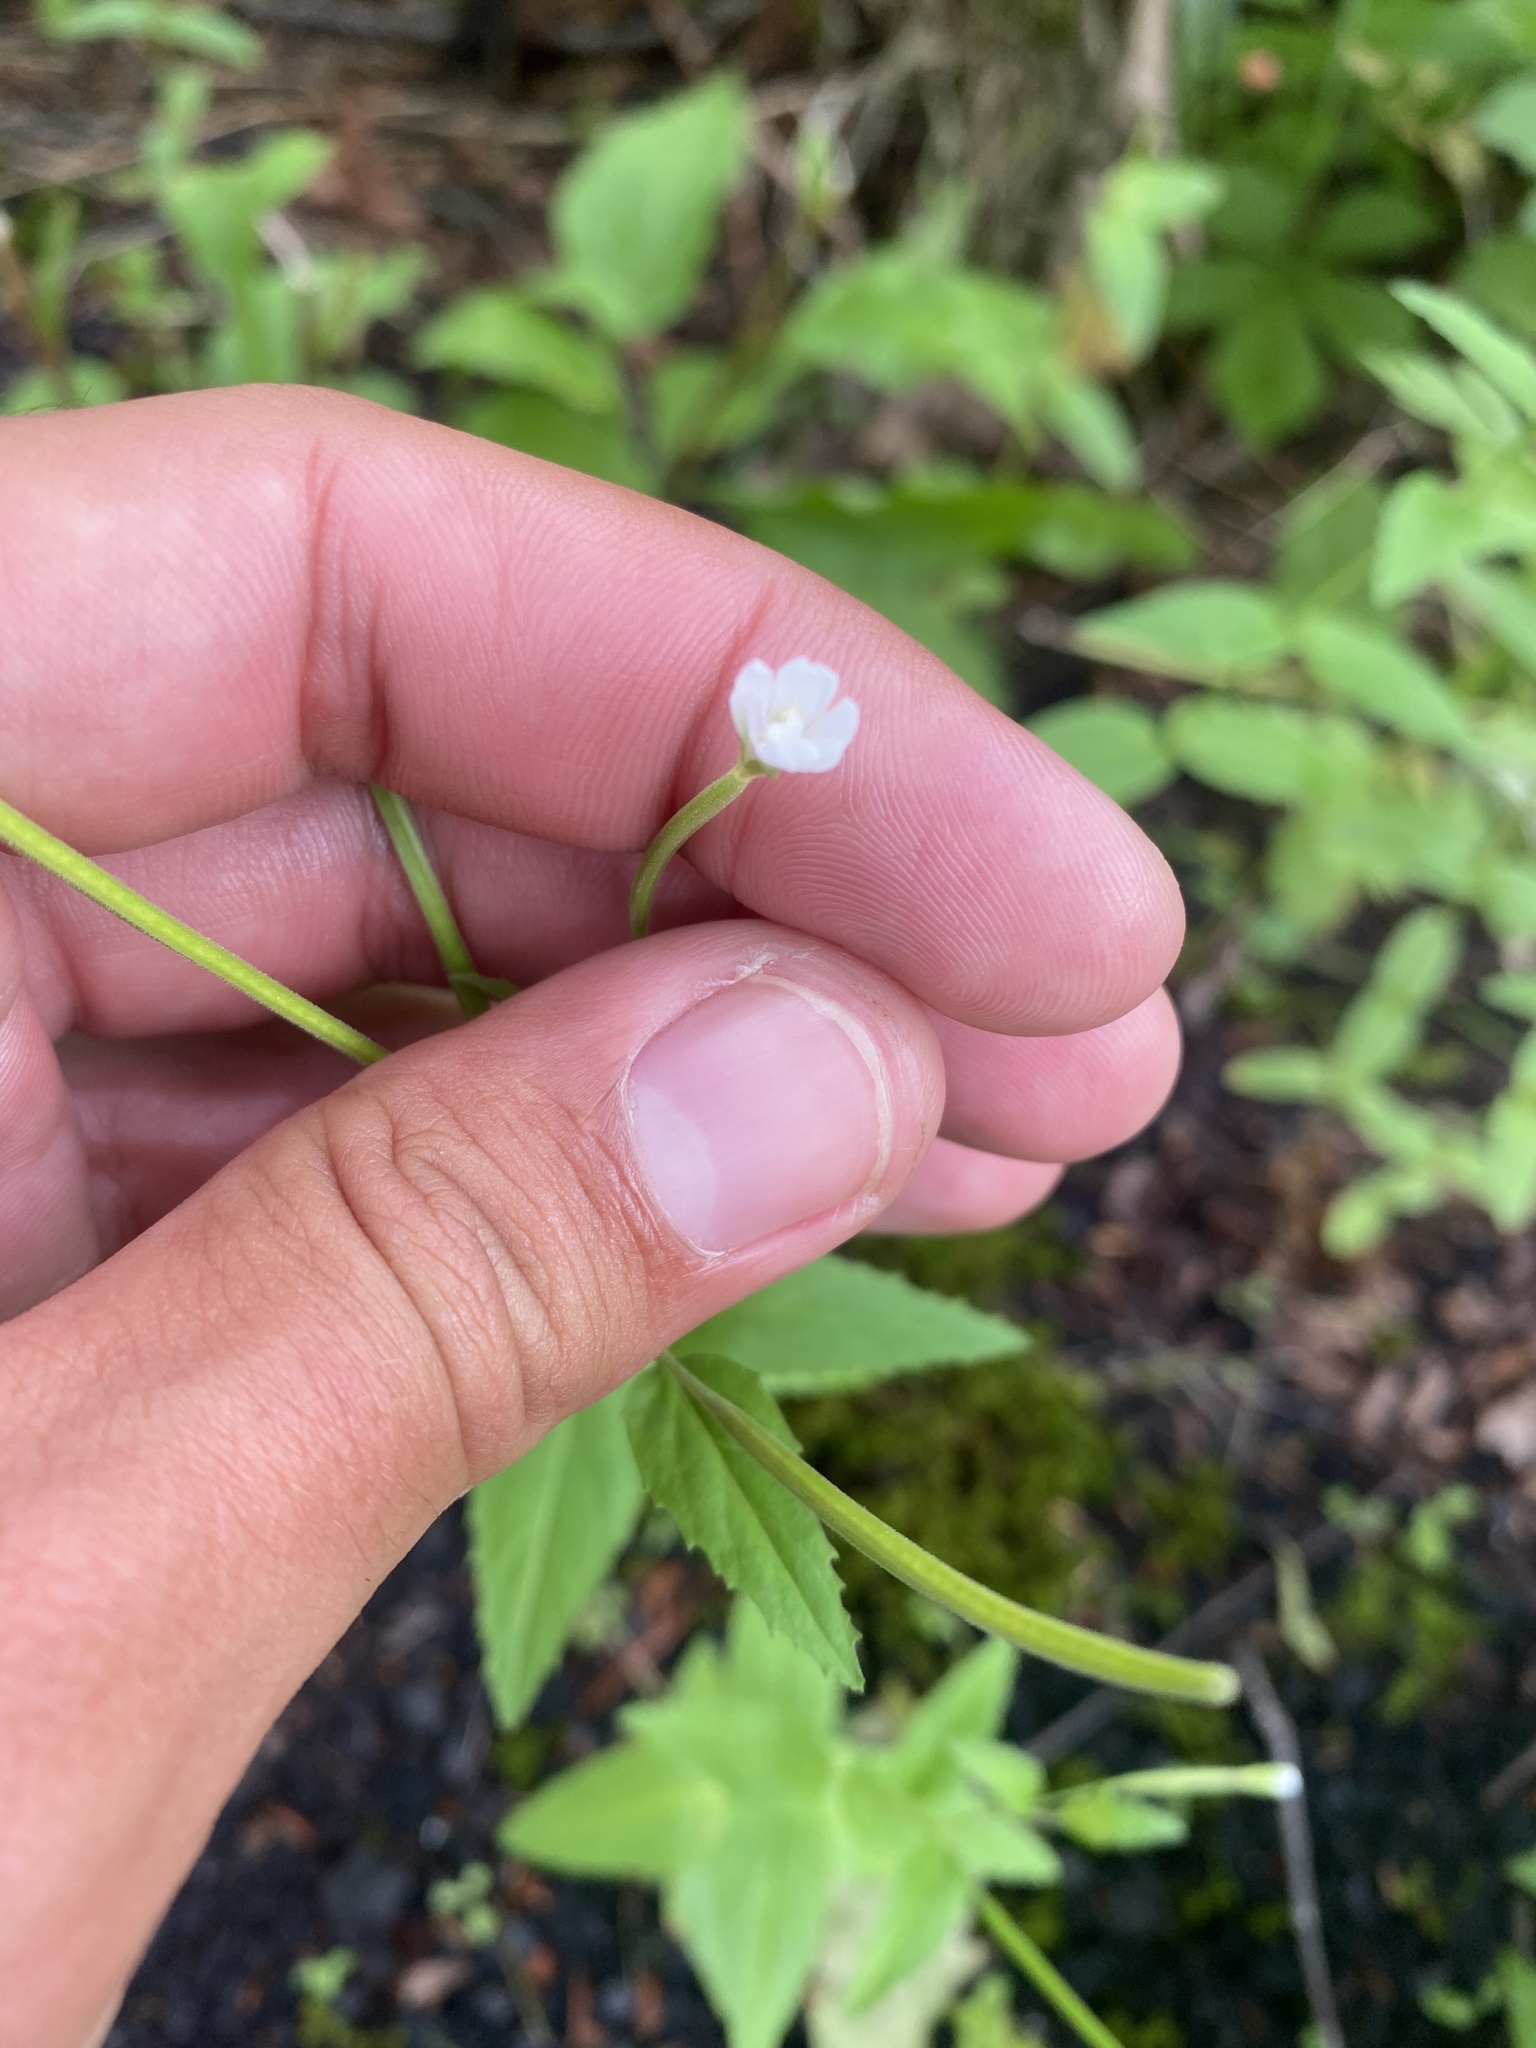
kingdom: Plantae
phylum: Tracheophyta
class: Magnoliopsida
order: Myrtales
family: Onagraceae
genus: Epilobium
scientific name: Epilobium montanum
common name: Broad-leaved willowherb
